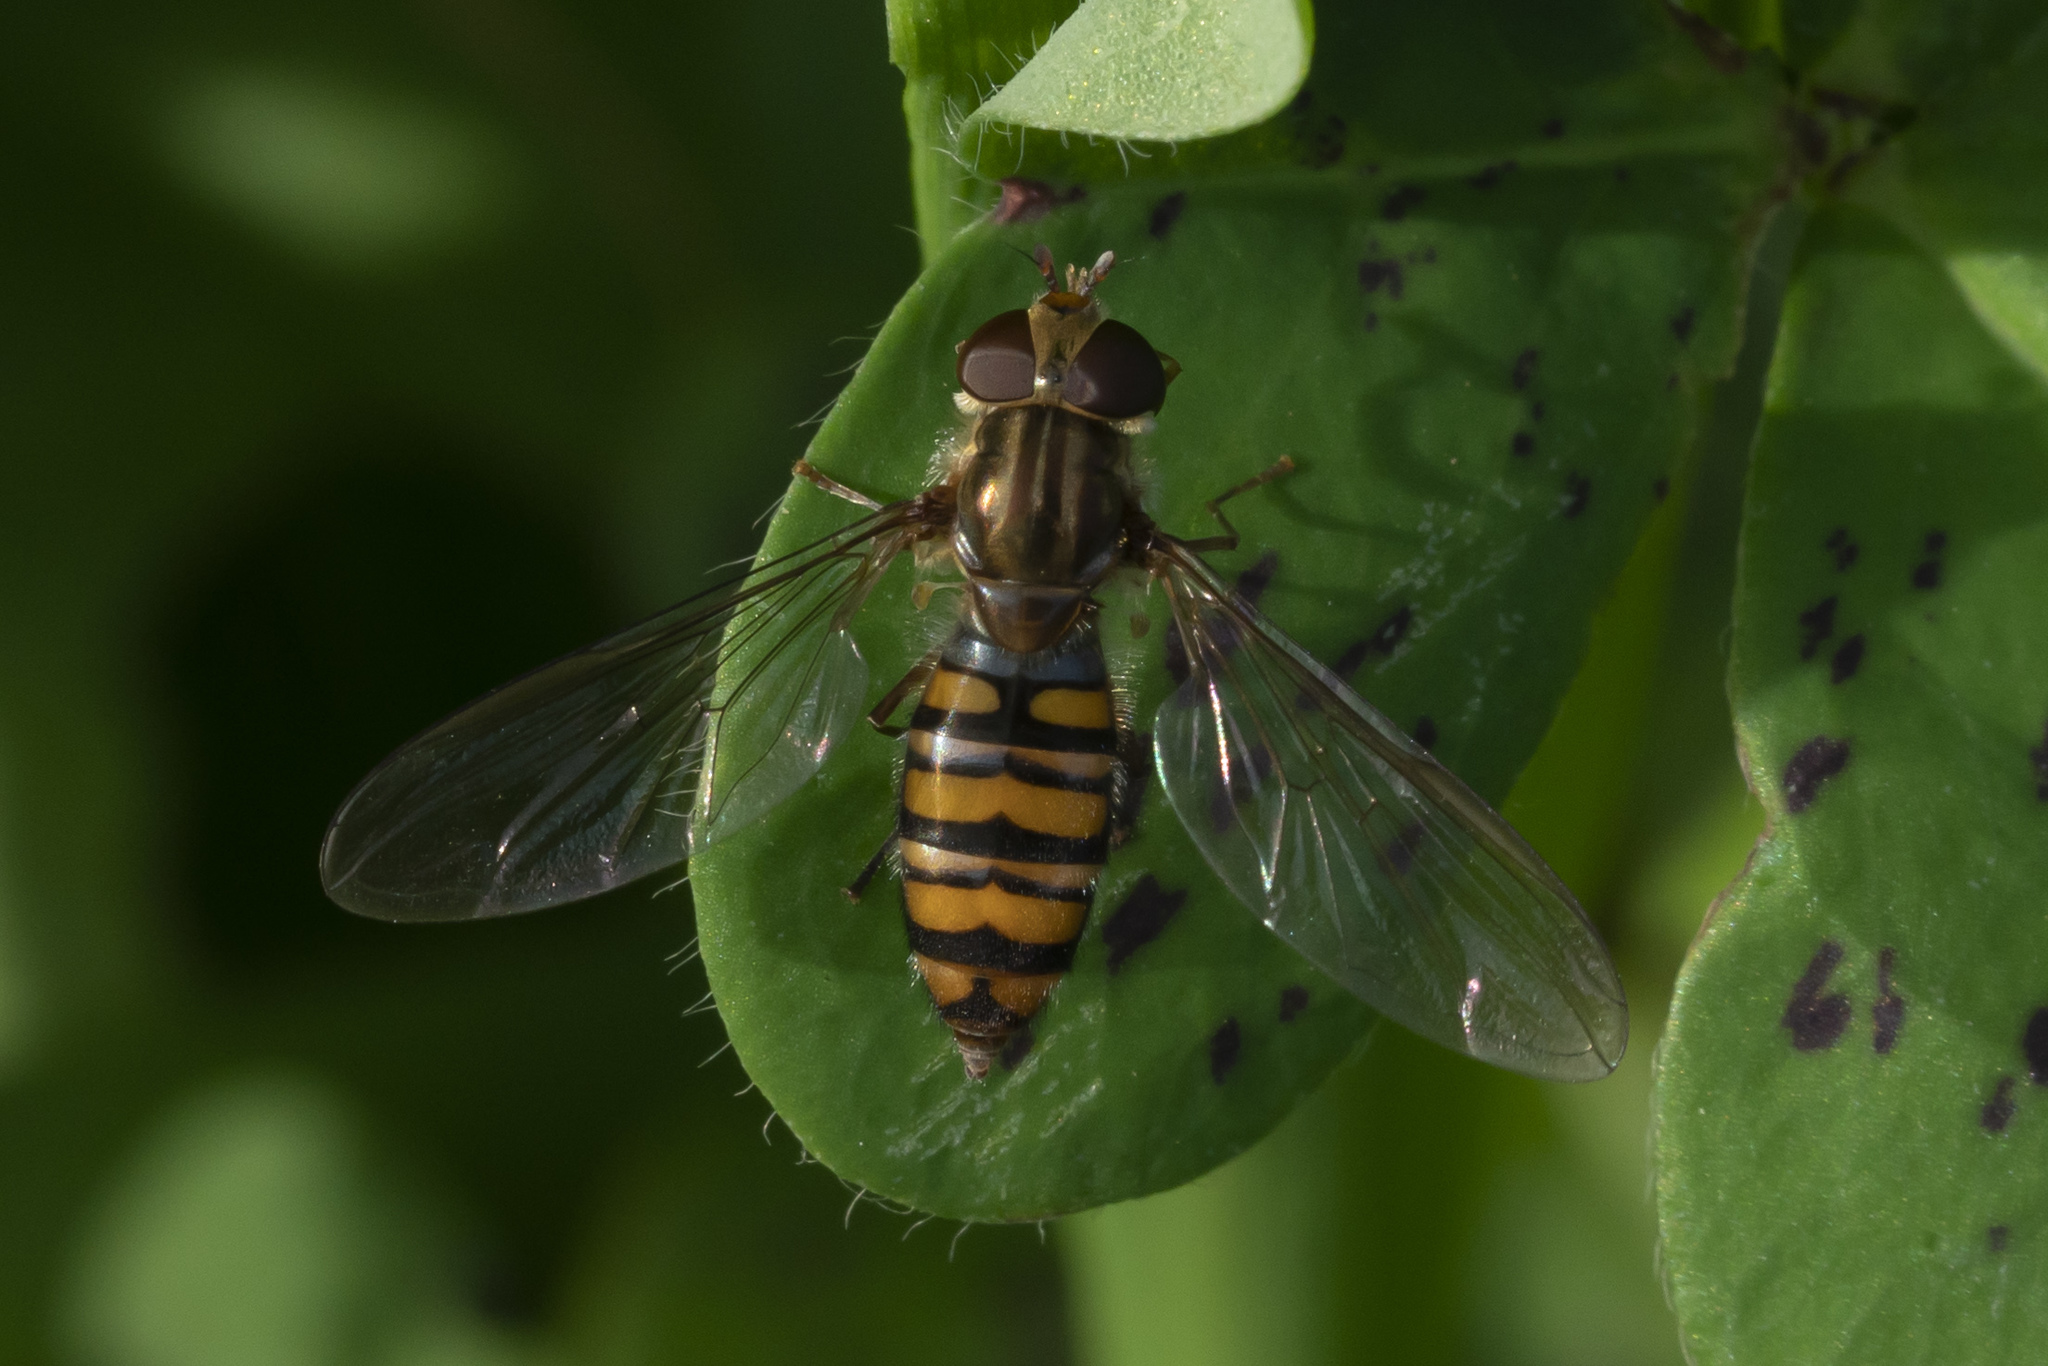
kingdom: Animalia
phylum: Arthropoda
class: Insecta
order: Diptera
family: Syrphidae
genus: Episyrphus
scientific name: Episyrphus balteatus
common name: Marmalade hoverfly
